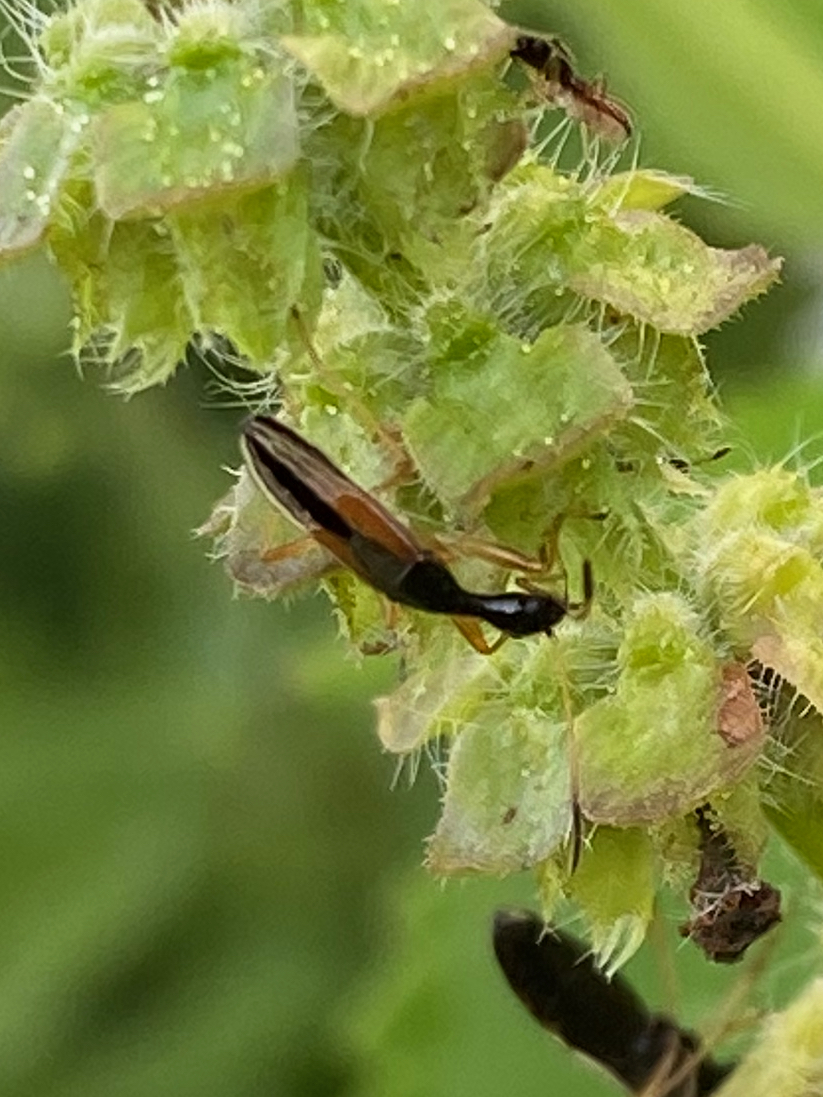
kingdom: Animalia
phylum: Arthropoda
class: Insecta
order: Hemiptera
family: Rhyparochromidae
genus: Myodocha
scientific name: Myodocha serripes
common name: Long-necked seed bug
